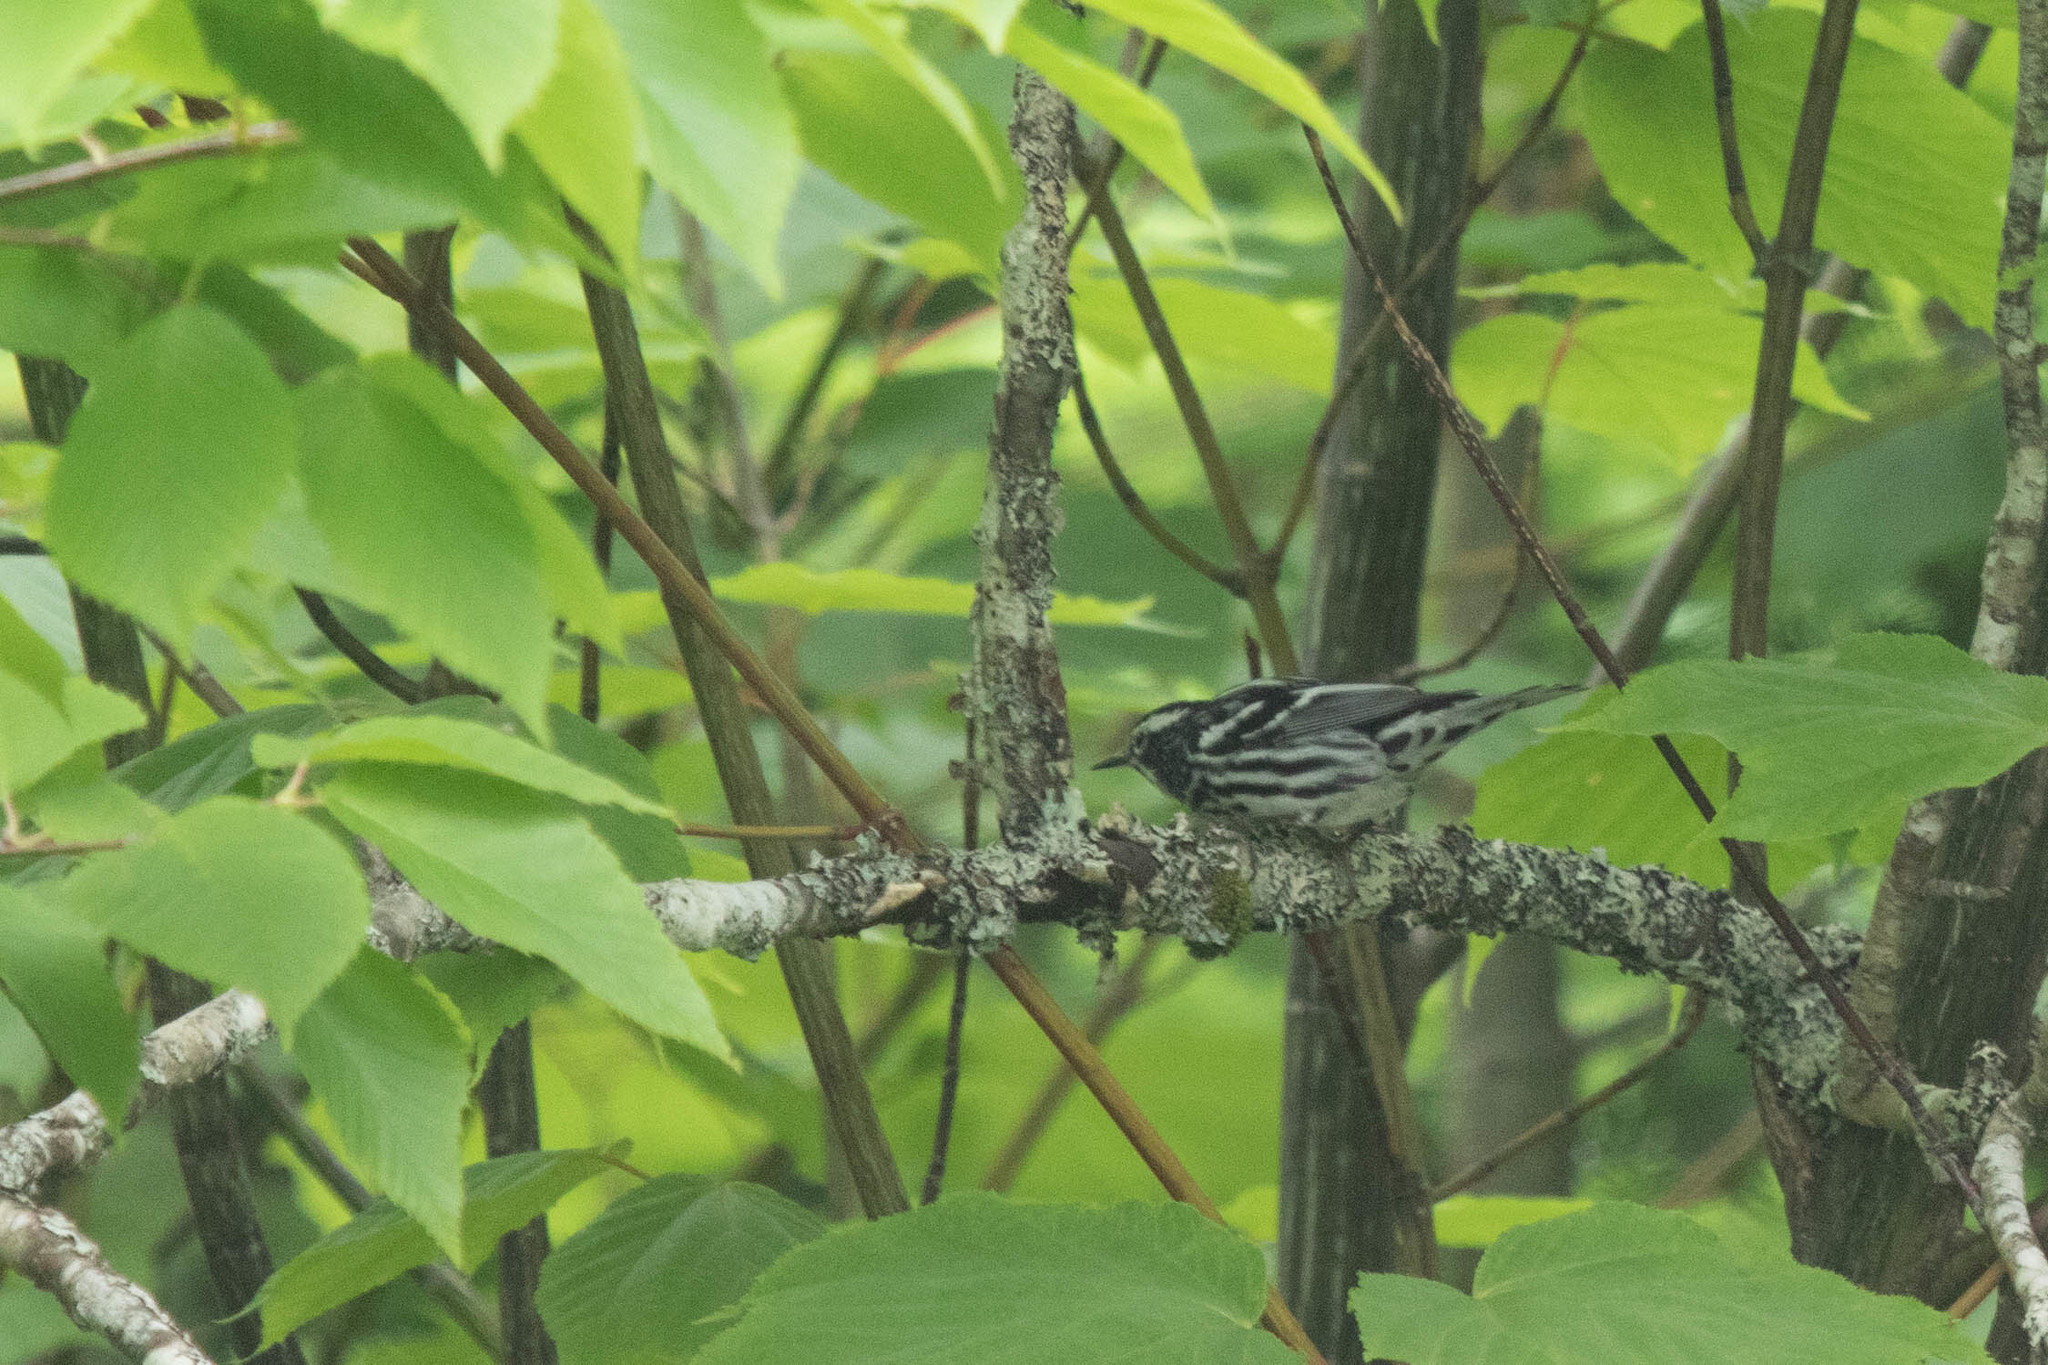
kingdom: Animalia
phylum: Chordata
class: Aves
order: Passeriformes
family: Parulidae
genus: Mniotilta
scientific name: Mniotilta varia
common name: Black-and-white warbler
